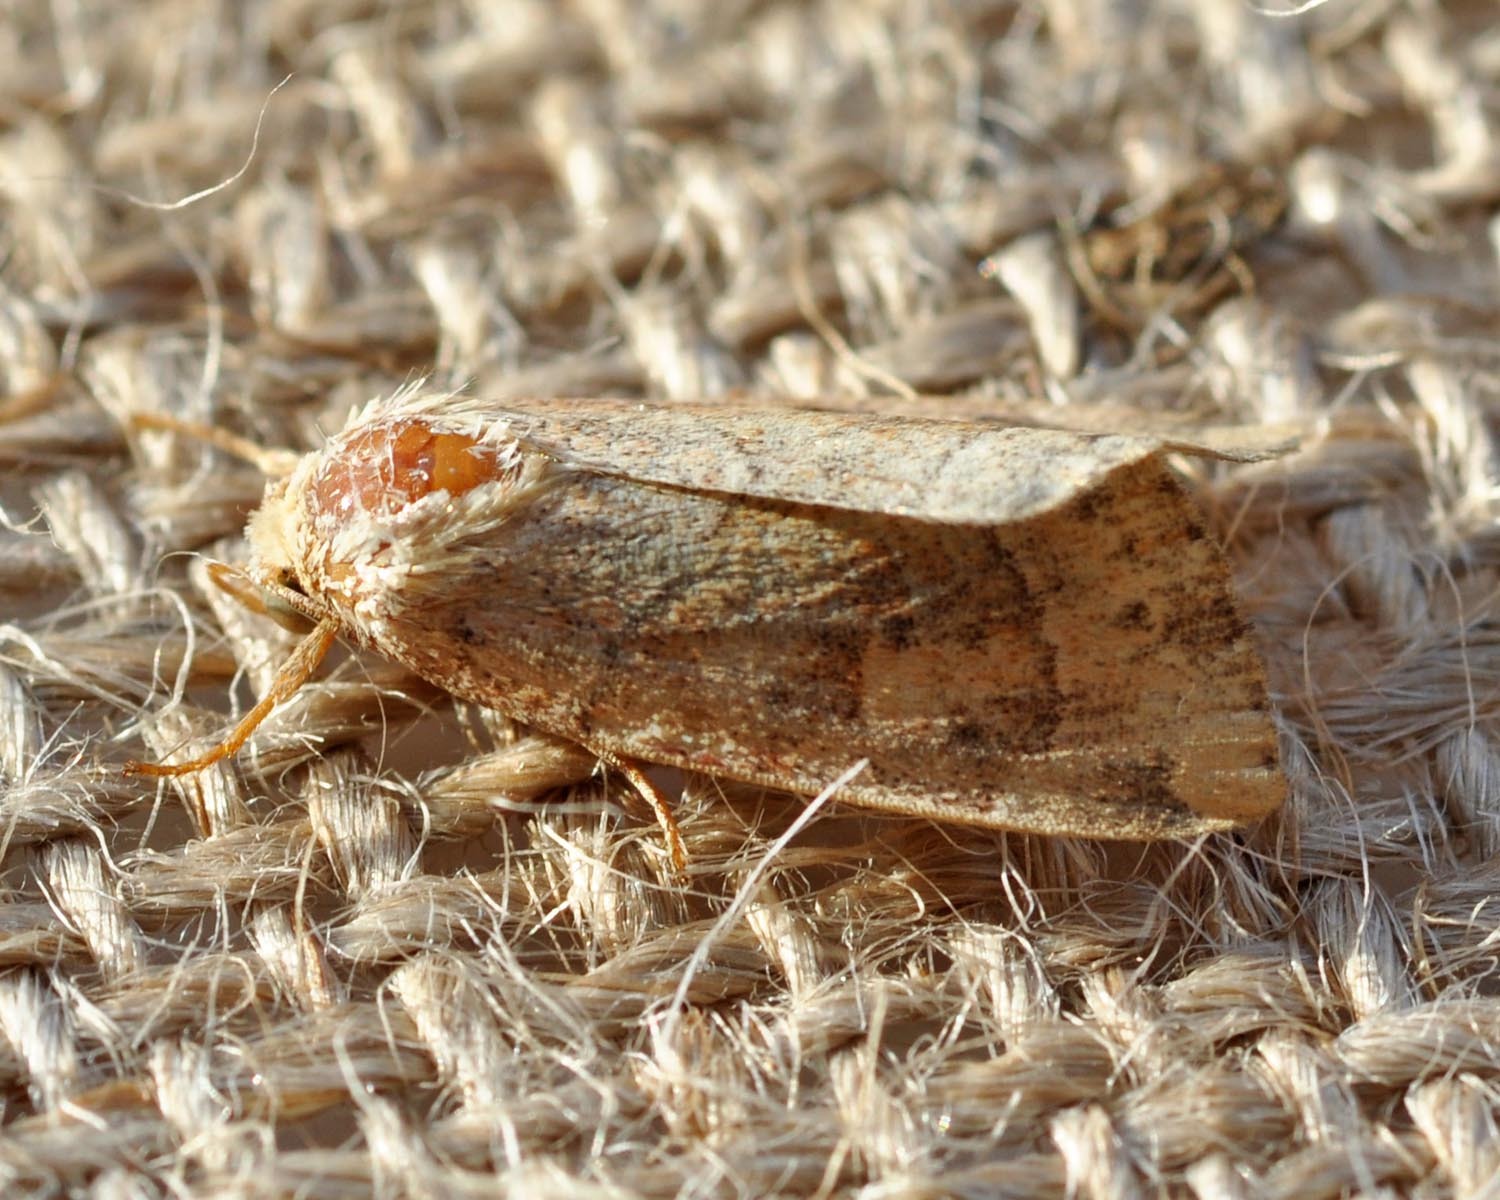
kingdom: Animalia
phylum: Arthropoda
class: Insecta
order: Lepidoptera
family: Noctuidae
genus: Cosmia
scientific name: Cosmia trapezina
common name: Dun-bar
